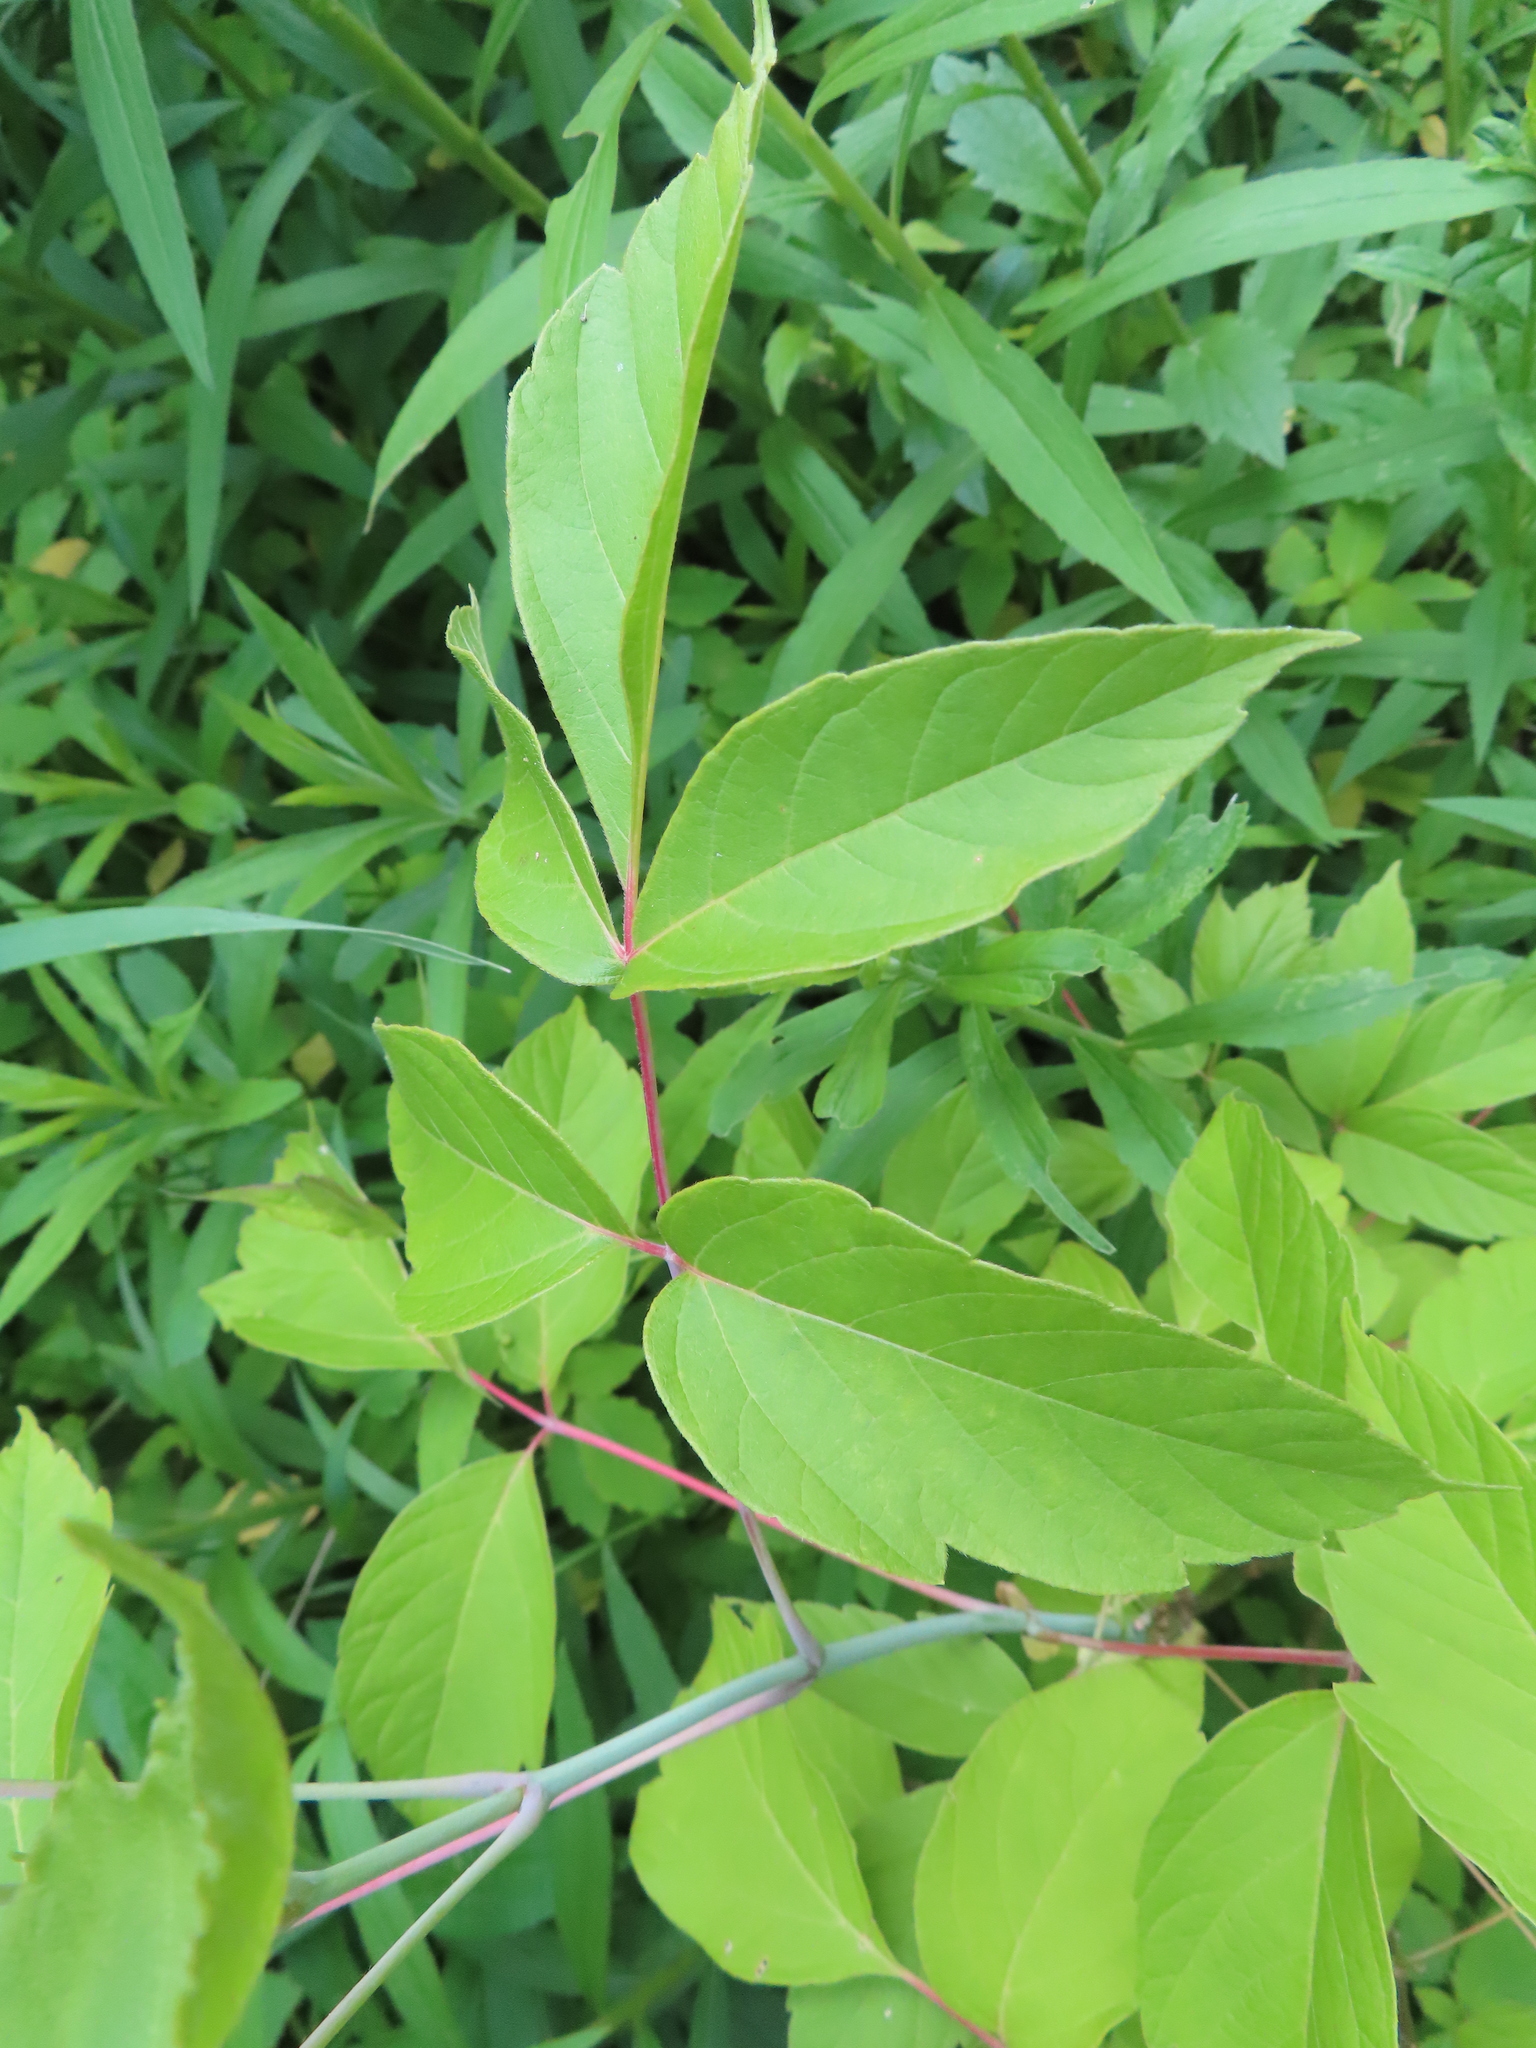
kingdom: Plantae
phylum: Tracheophyta
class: Magnoliopsida
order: Sapindales
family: Sapindaceae
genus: Acer
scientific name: Acer negundo
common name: Ashleaf maple
